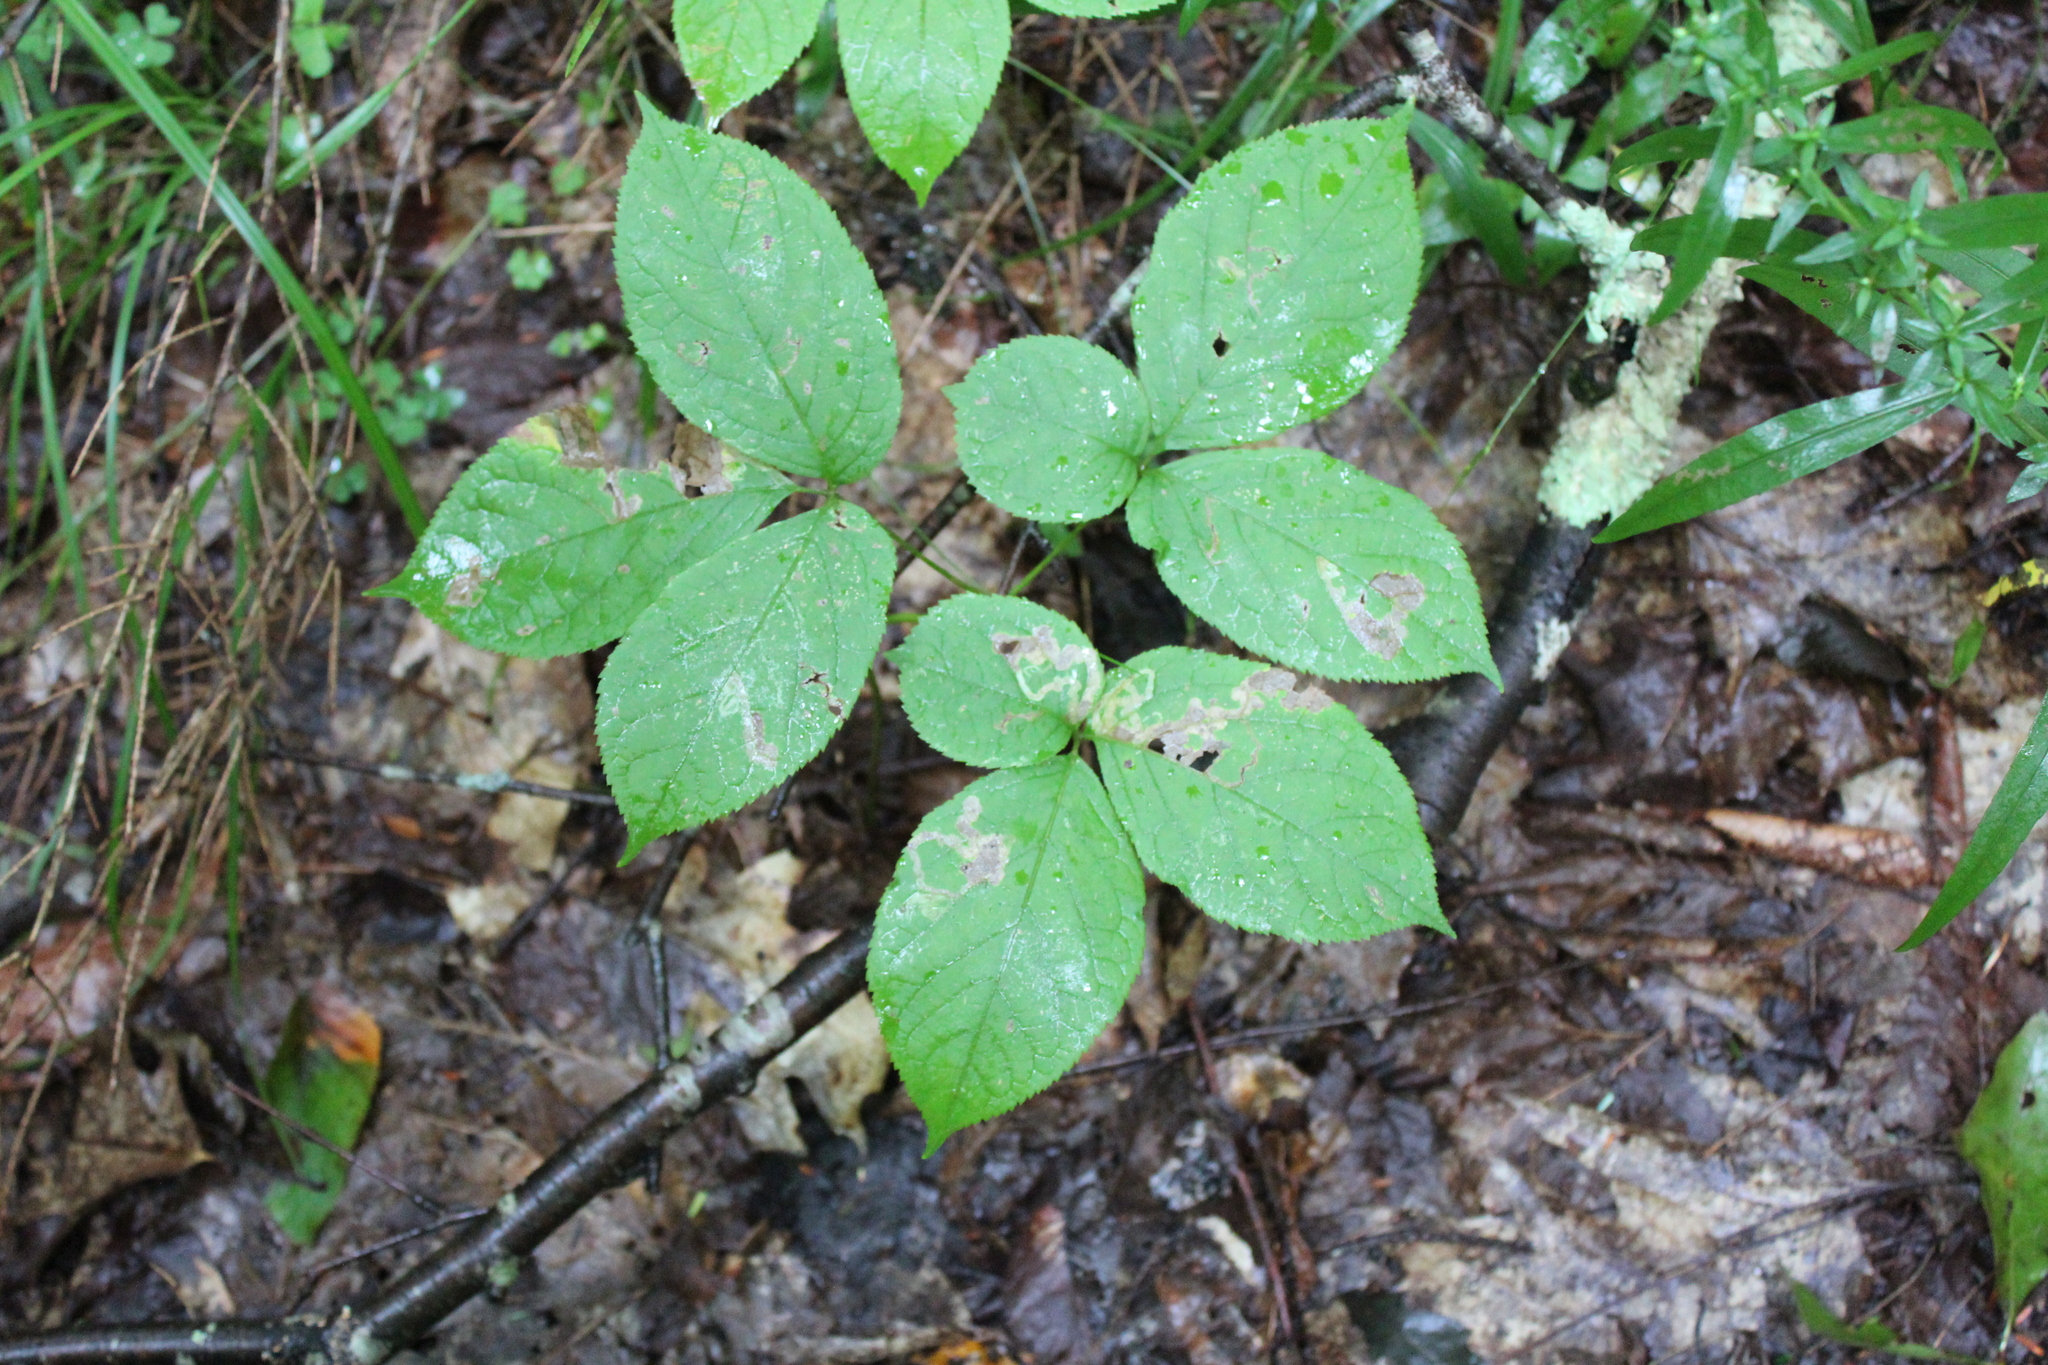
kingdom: Plantae
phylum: Tracheophyta
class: Magnoliopsida
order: Apiales
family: Araliaceae
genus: Aralia
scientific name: Aralia nudicaulis
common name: Wild sarsaparilla
